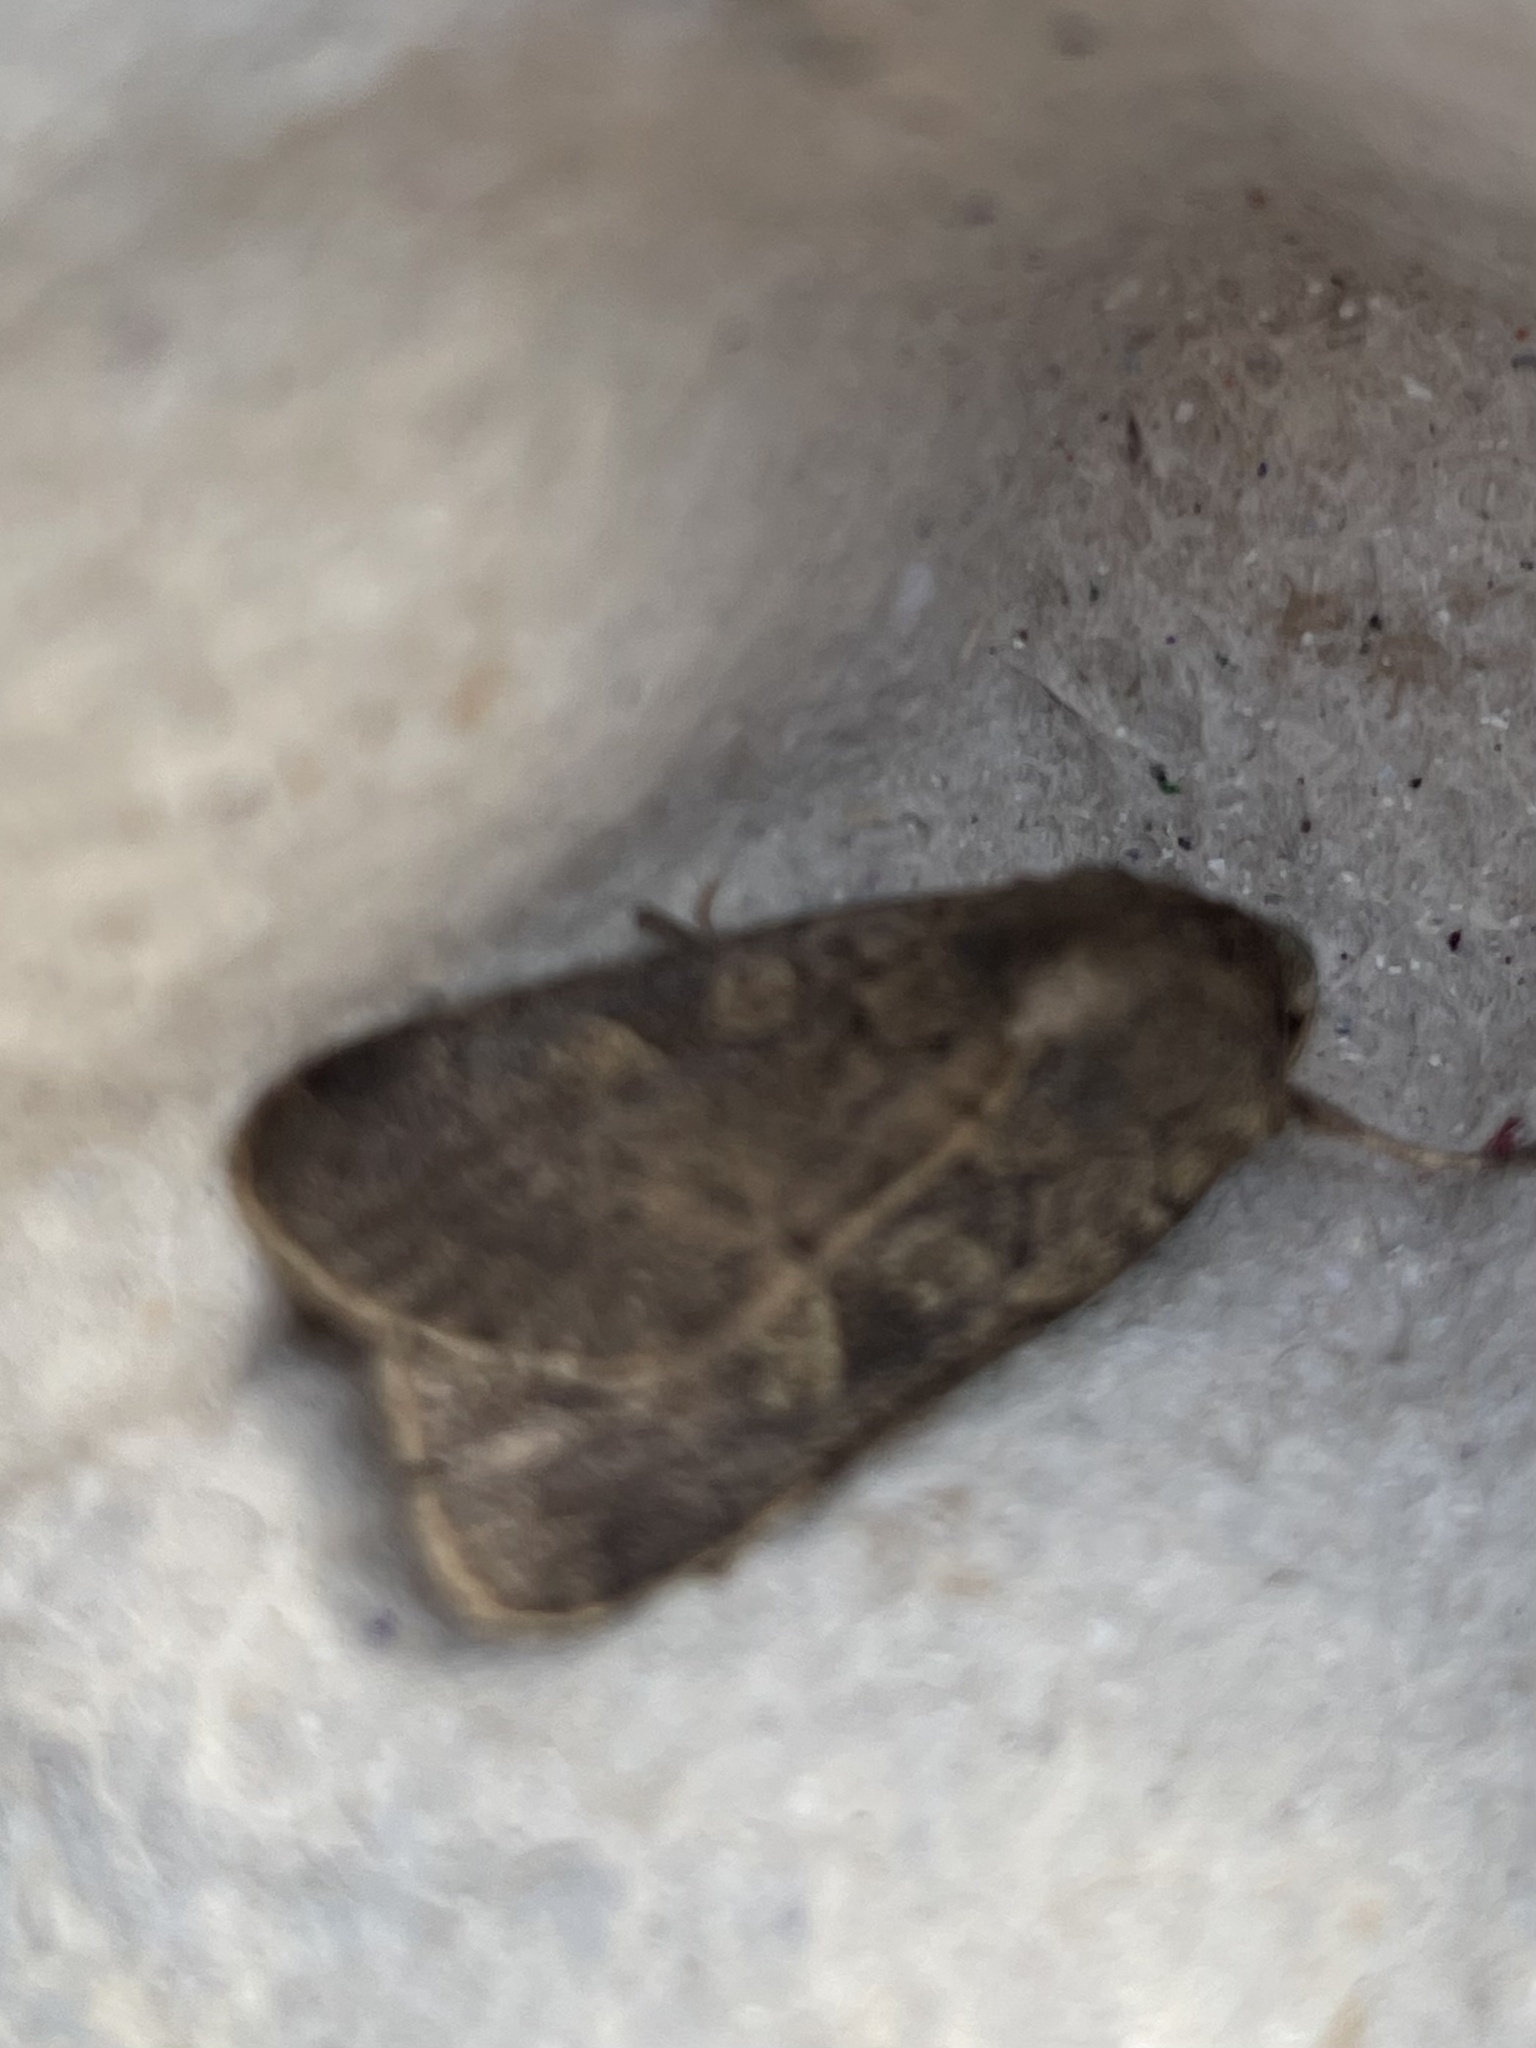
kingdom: Animalia
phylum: Arthropoda
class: Insecta
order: Lepidoptera
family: Noctuidae
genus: Xestia
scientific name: Xestia xanthographa
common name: Square-spot rustic
